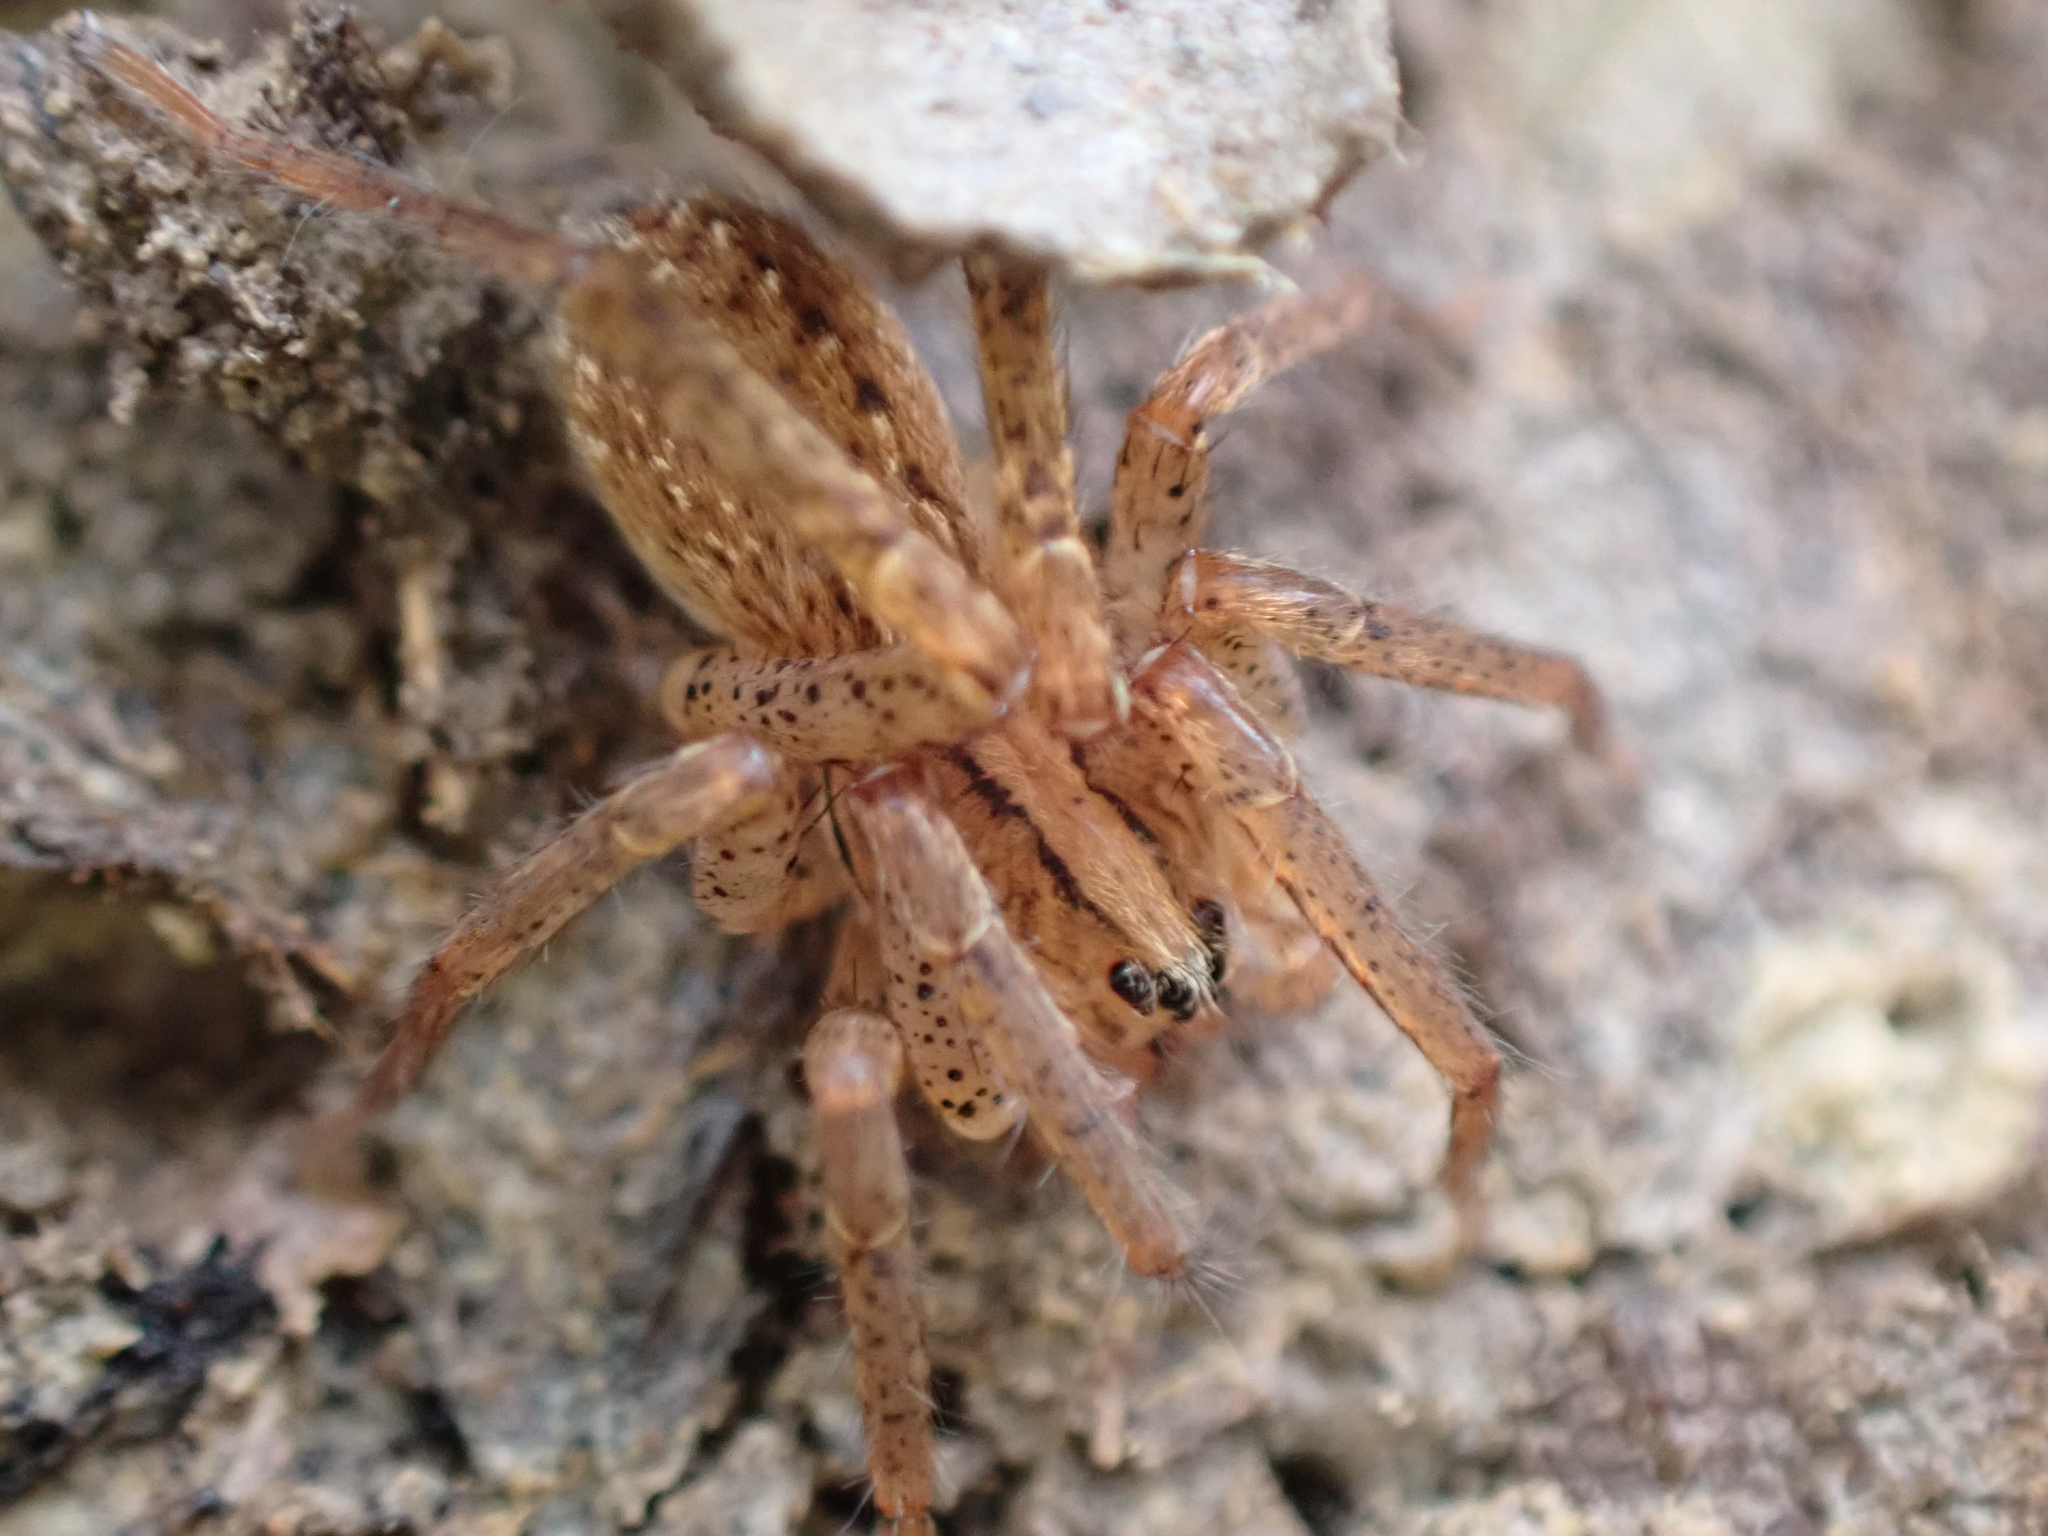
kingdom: Animalia
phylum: Arthropoda
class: Arachnida
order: Araneae
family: Ctenidae
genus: Anahita
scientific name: Anahita punctulata
